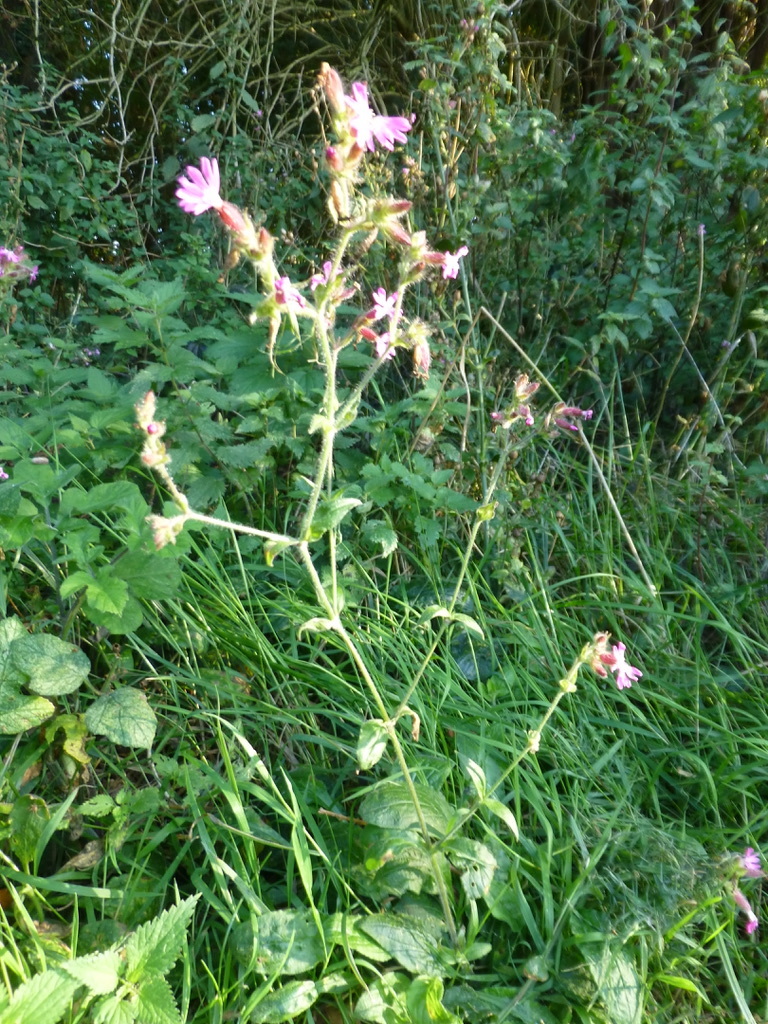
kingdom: Plantae
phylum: Tracheophyta
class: Magnoliopsida
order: Caryophyllales
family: Caryophyllaceae
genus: Silene
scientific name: Silene dioica
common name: Red campion
